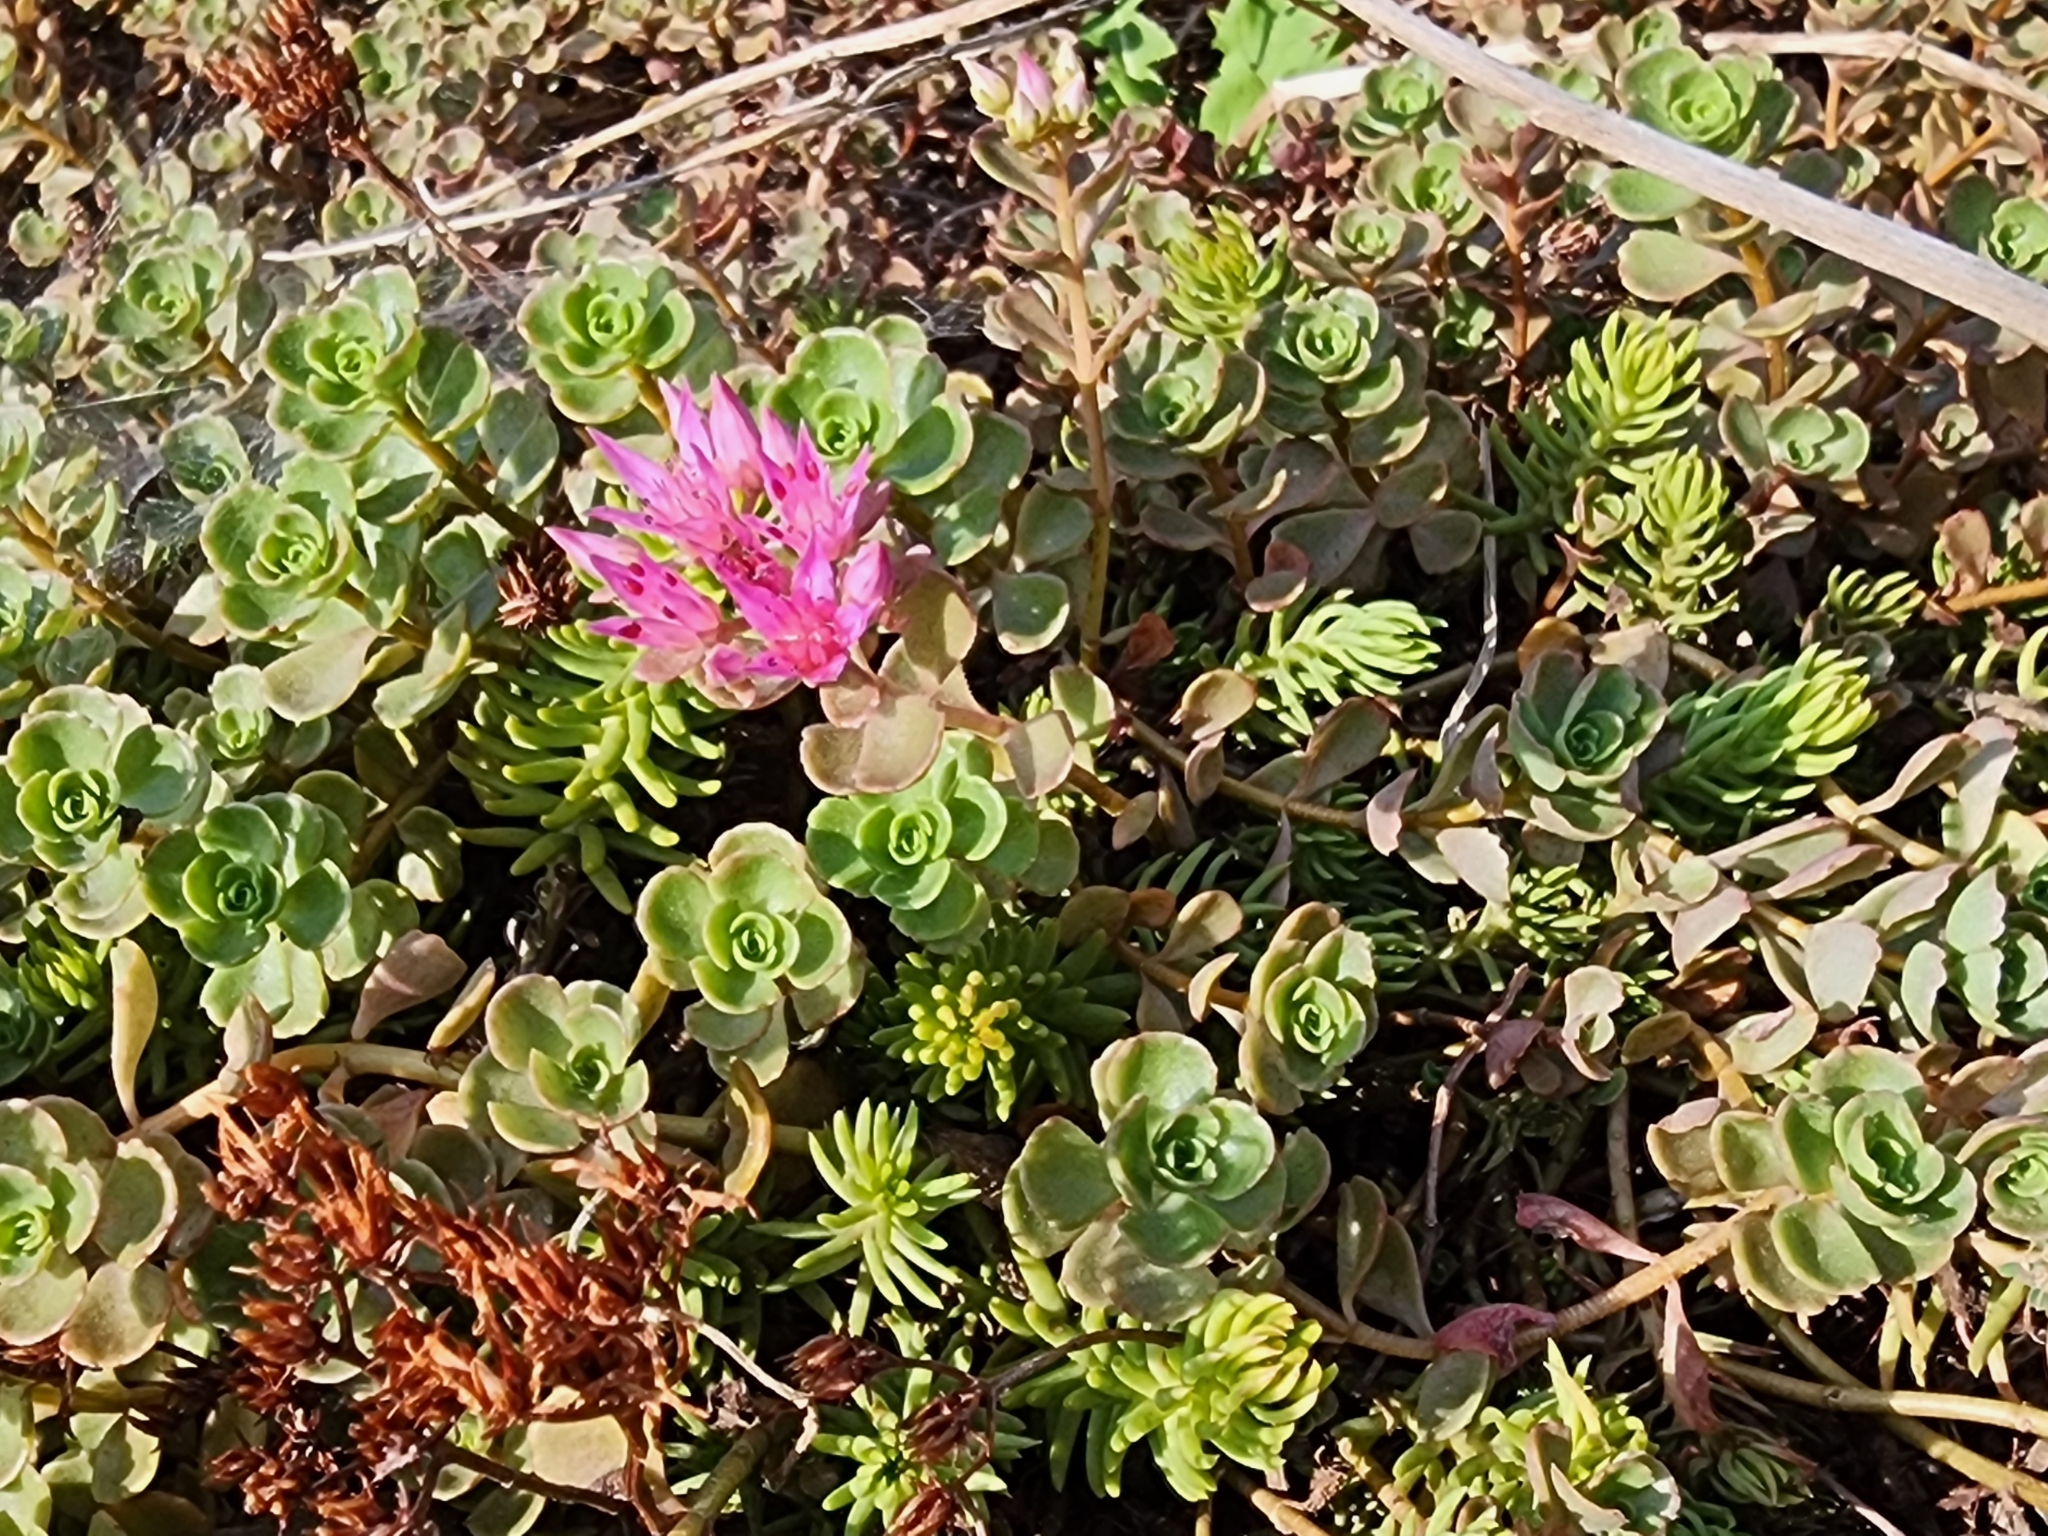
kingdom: Plantae
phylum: Tracheophyta
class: Magnoliopsida
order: Saxifragales
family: Crassulaceae
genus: Phedimus
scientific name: Phedimus spurius
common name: Caucasian stonecrop
